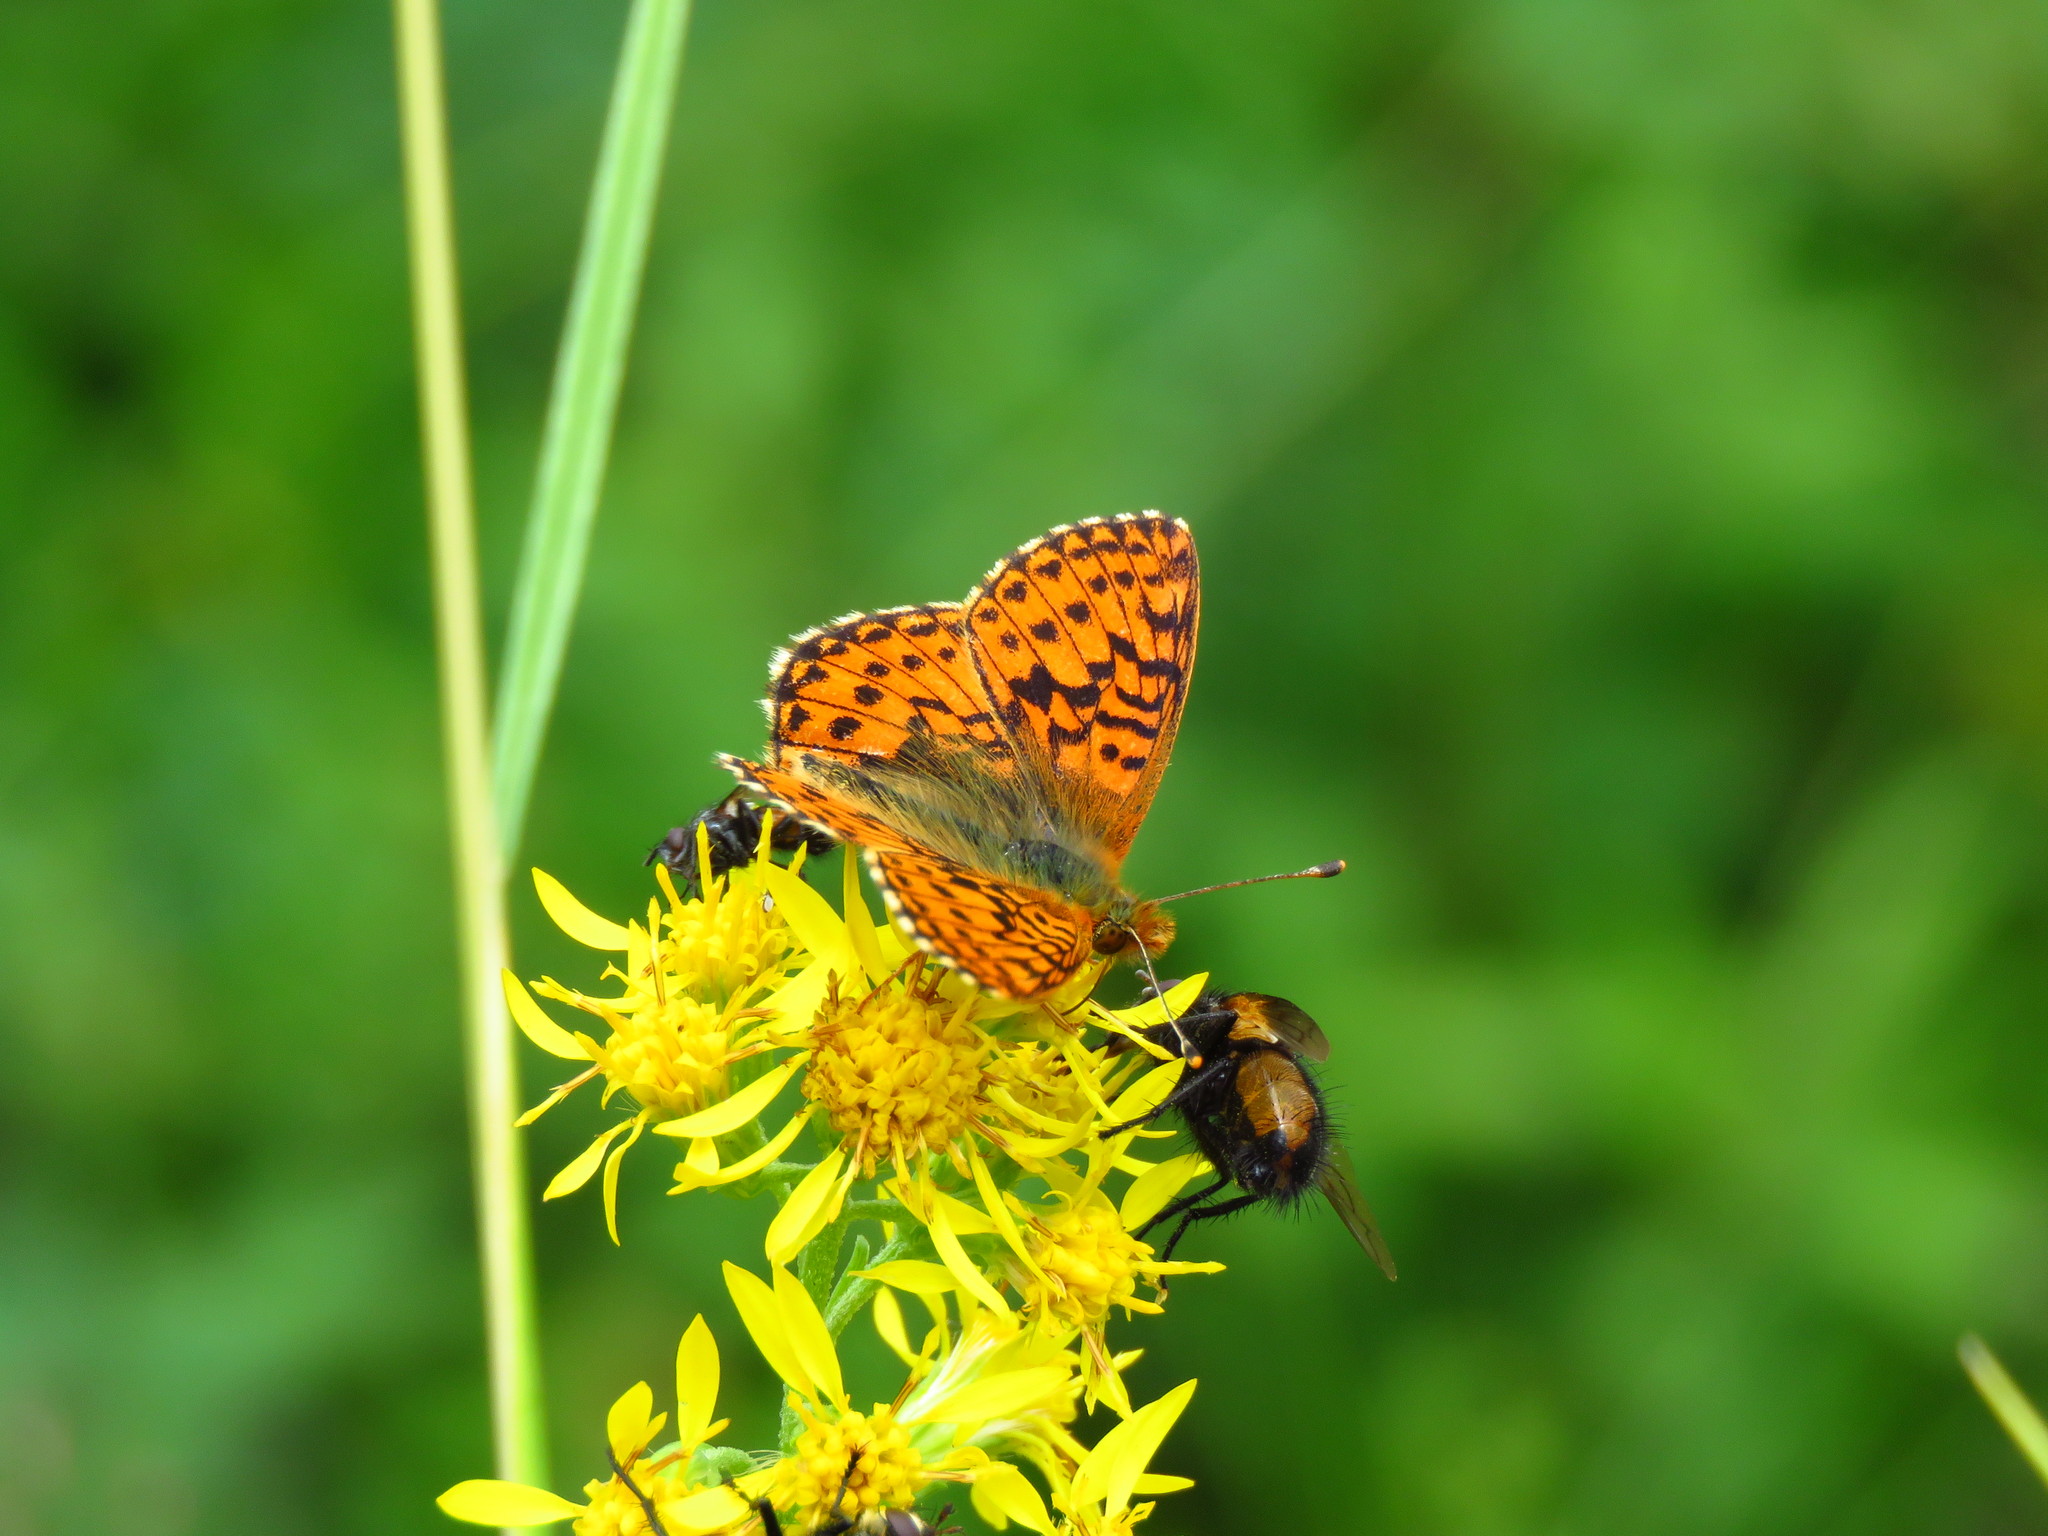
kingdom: Animalia
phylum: Arthropoda
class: Insecta
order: Lepidoptera
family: Nymphalidae
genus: Boloria
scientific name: Boloria aquilonaris
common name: Cranberry fritillary
